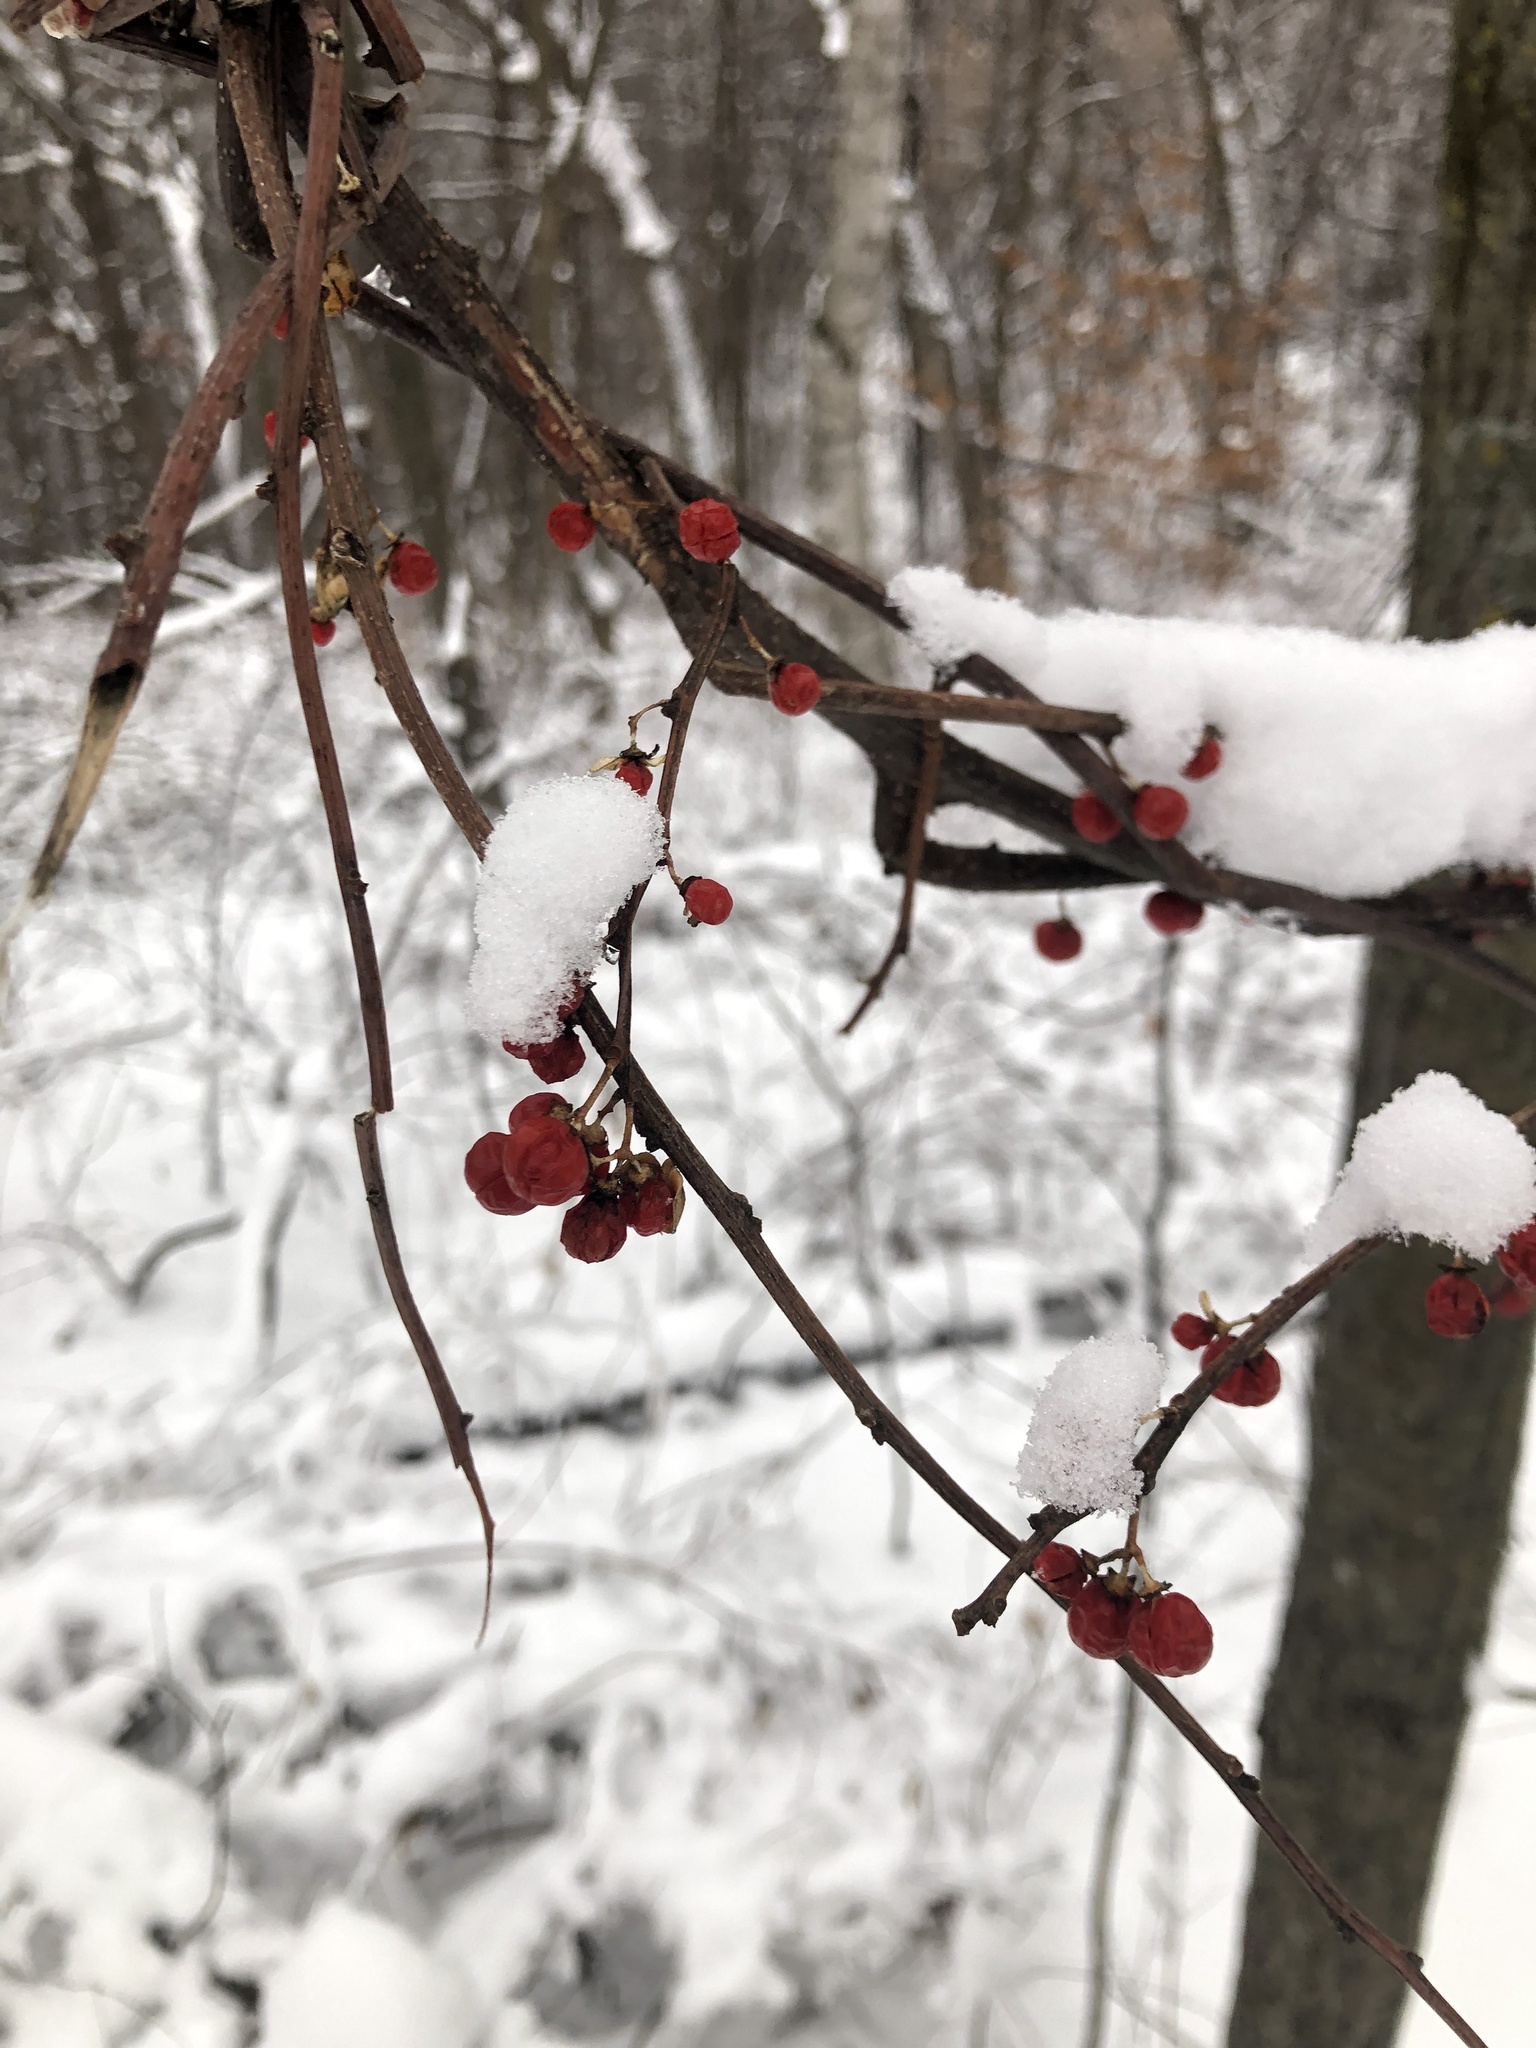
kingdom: Plantae
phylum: Tracheophyta
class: Magnoliopsida
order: Celastrales
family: Celastraceae
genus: Celastrus
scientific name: Celastrus orbiculatus
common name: Oriental bittersweet
